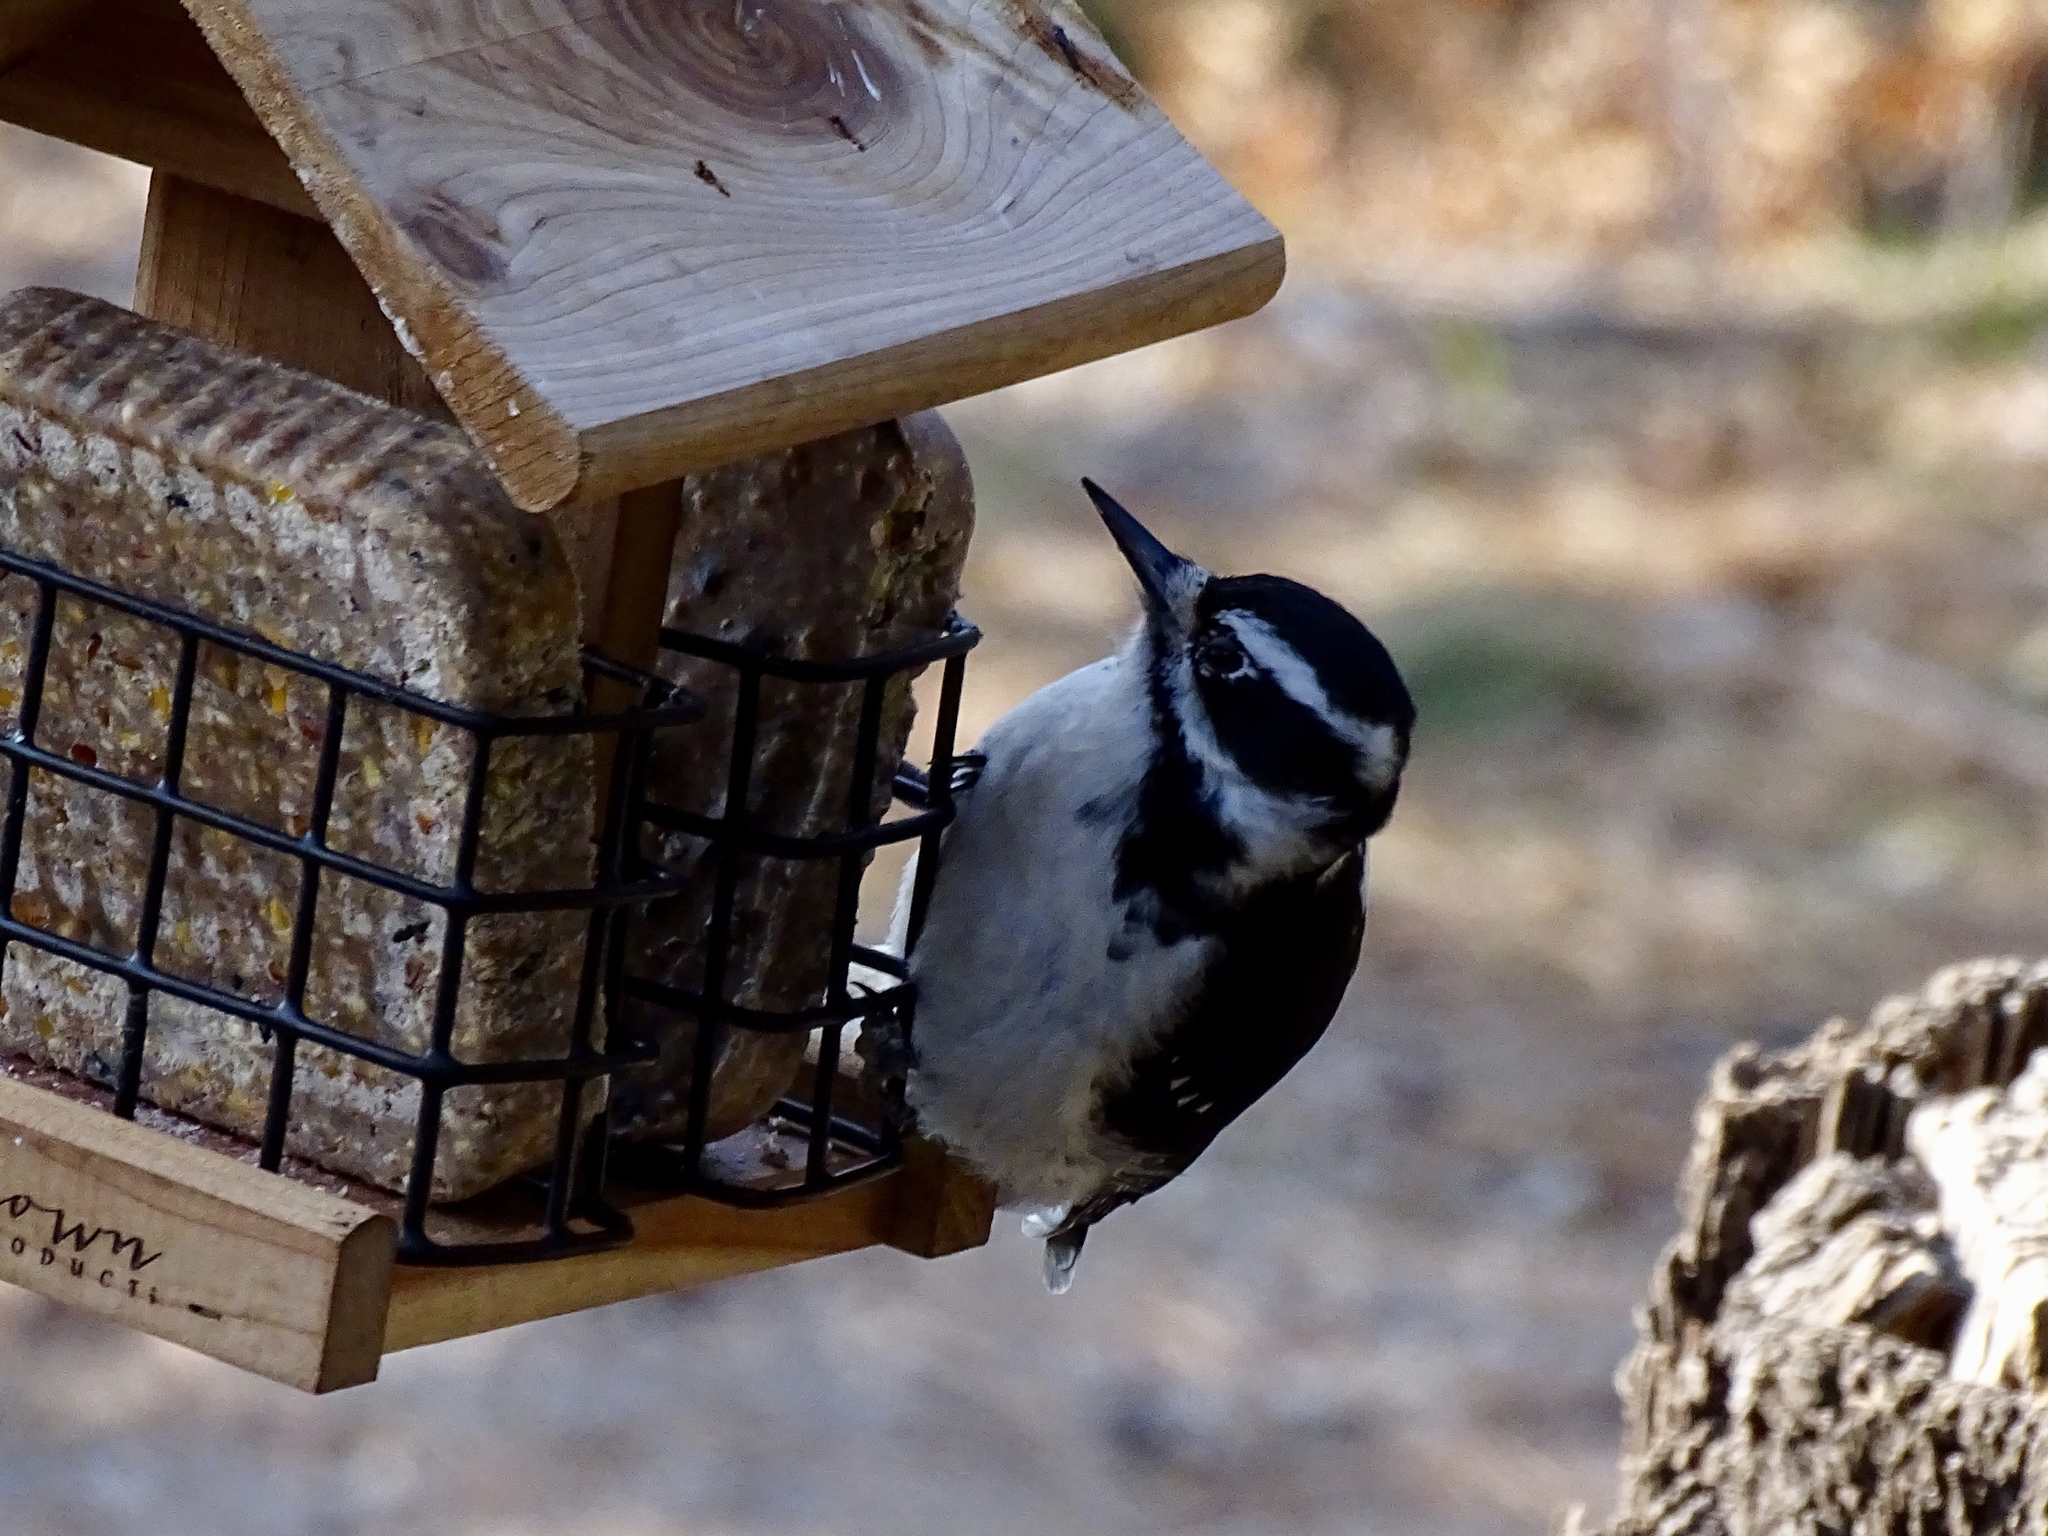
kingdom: Animalia
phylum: Chordata
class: Aves
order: Piciformes
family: Picidae
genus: Leuconotopicus
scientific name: Leuconotopicus villosus
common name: Hairy woodpecker
